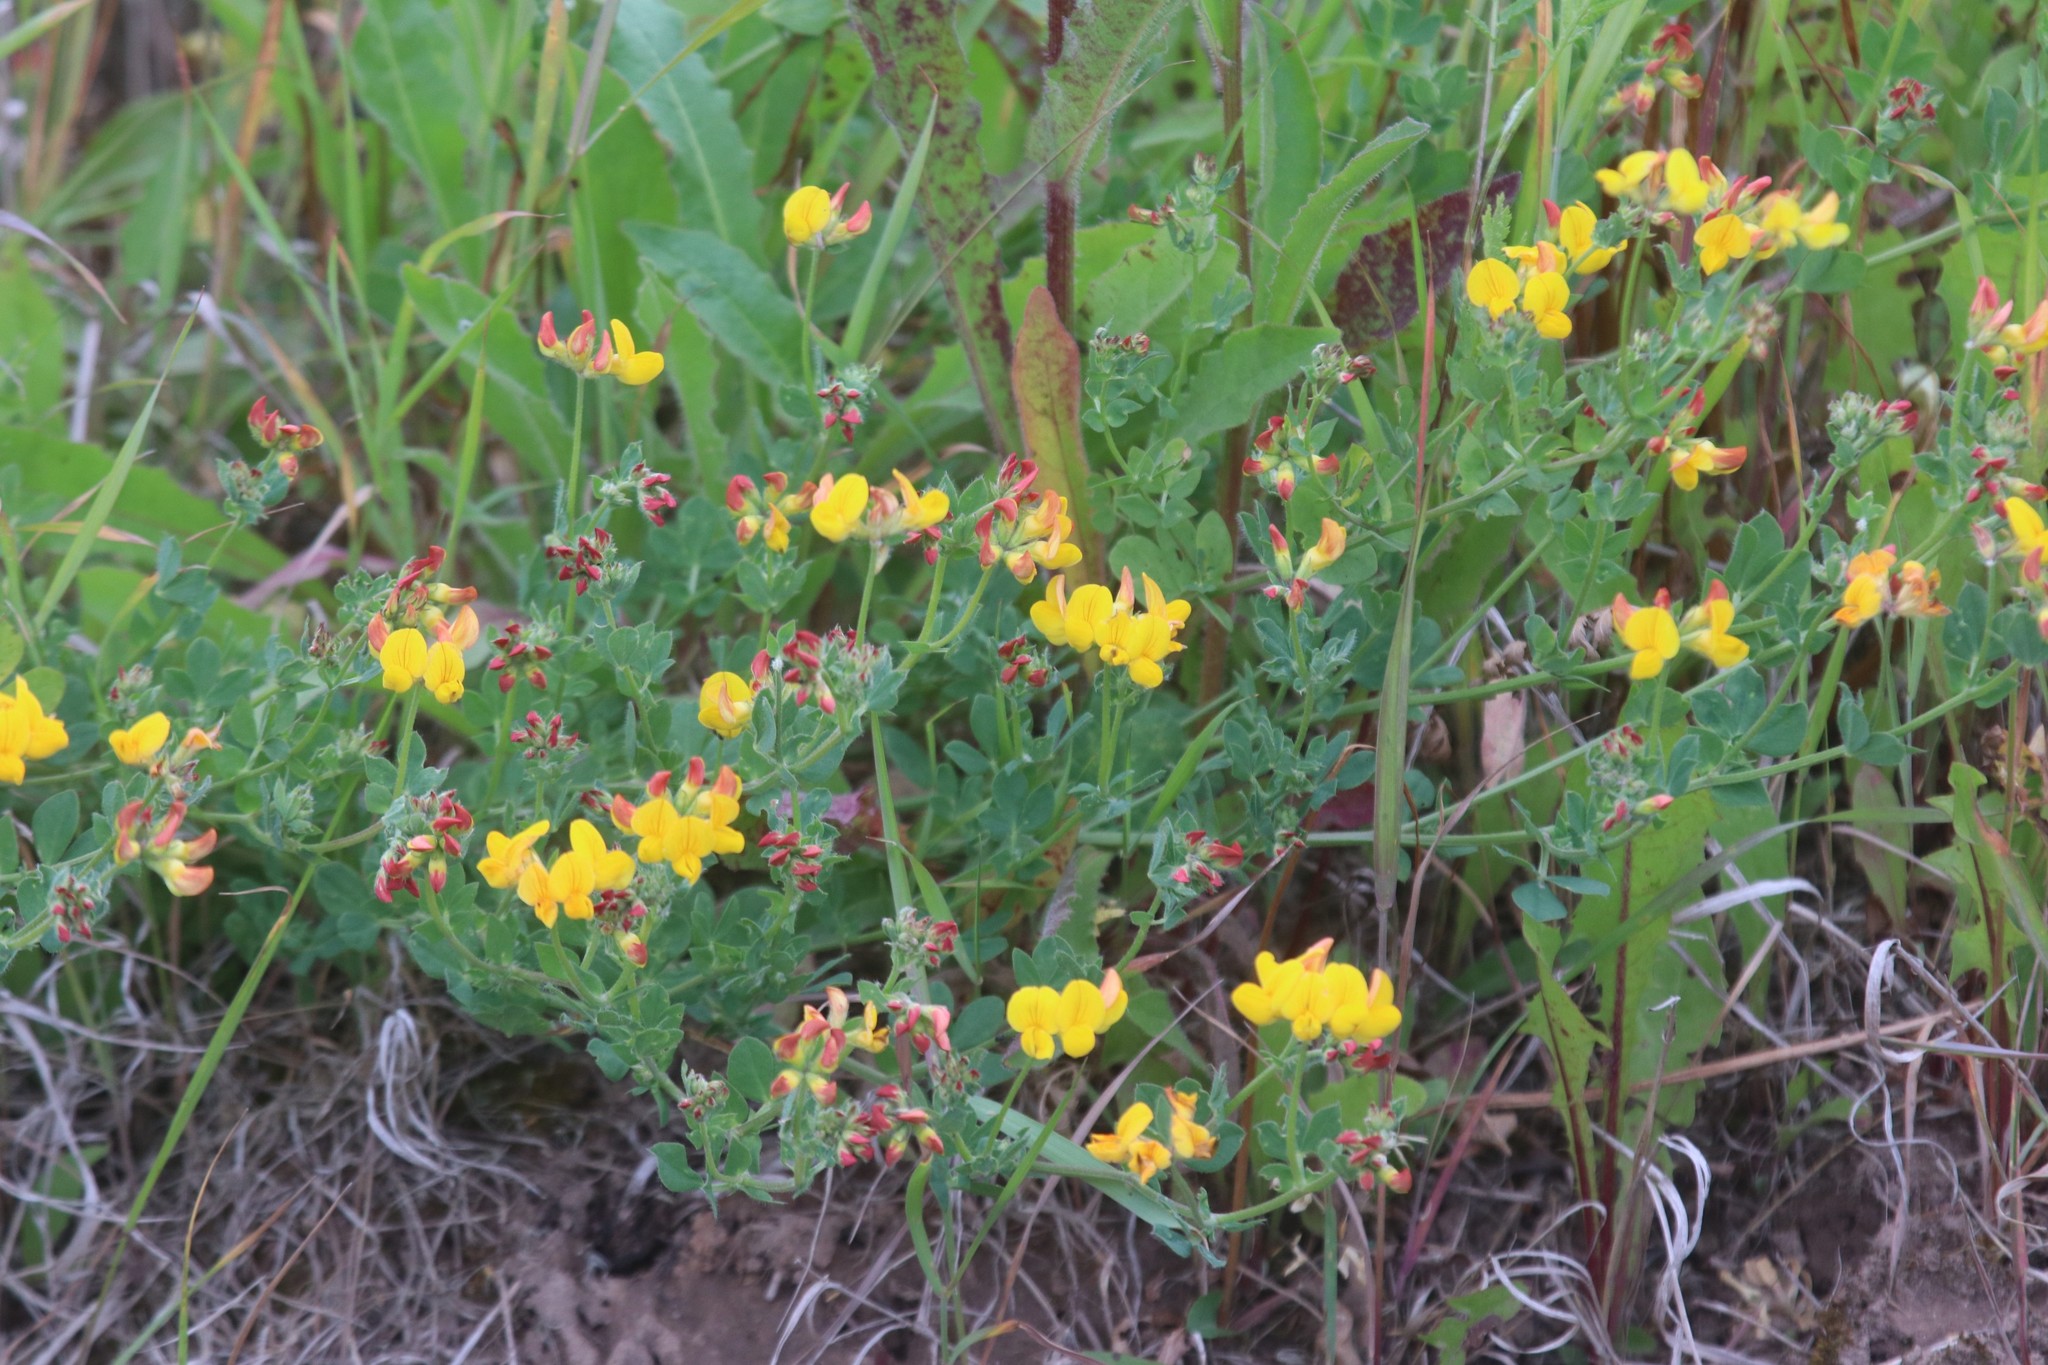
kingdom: Plantae
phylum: Tracheophyta
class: Magnoliopsida
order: Fabales
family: Fabaceae
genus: Lotus
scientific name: Lotus corniculatus
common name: Common bird's-foot-trefoil
